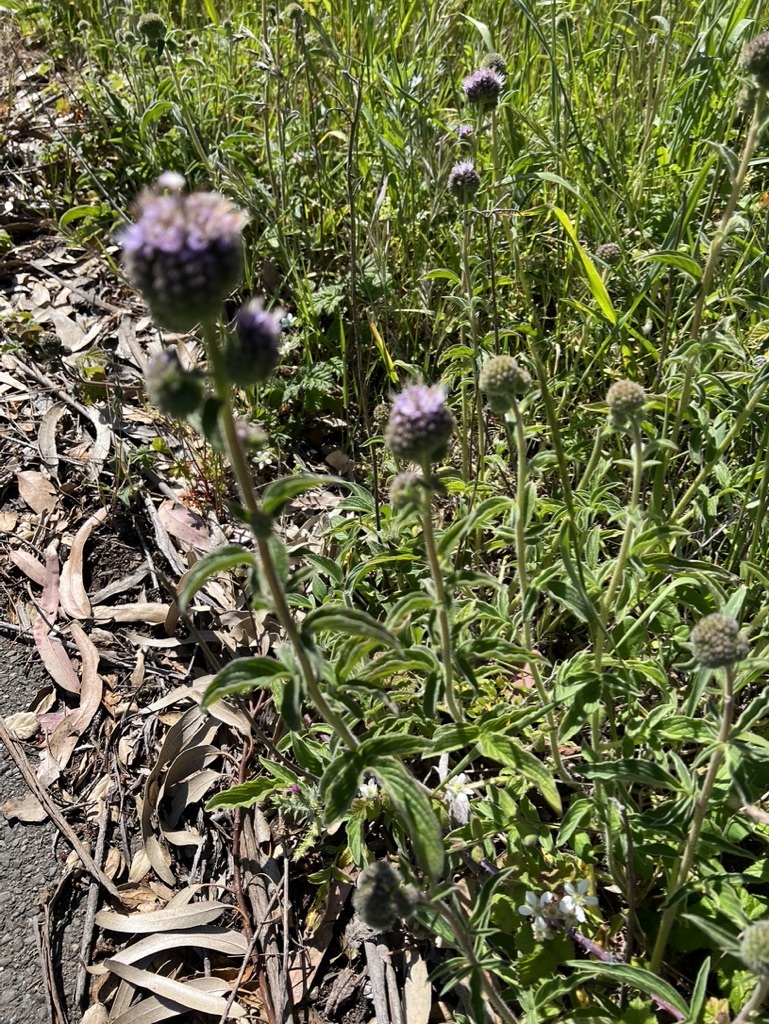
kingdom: Plantae
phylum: Tracheophyta
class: Magnoliopsida
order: Boraginales
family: Hydrophyllaceae
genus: Phacelia
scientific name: Phacelia californica
